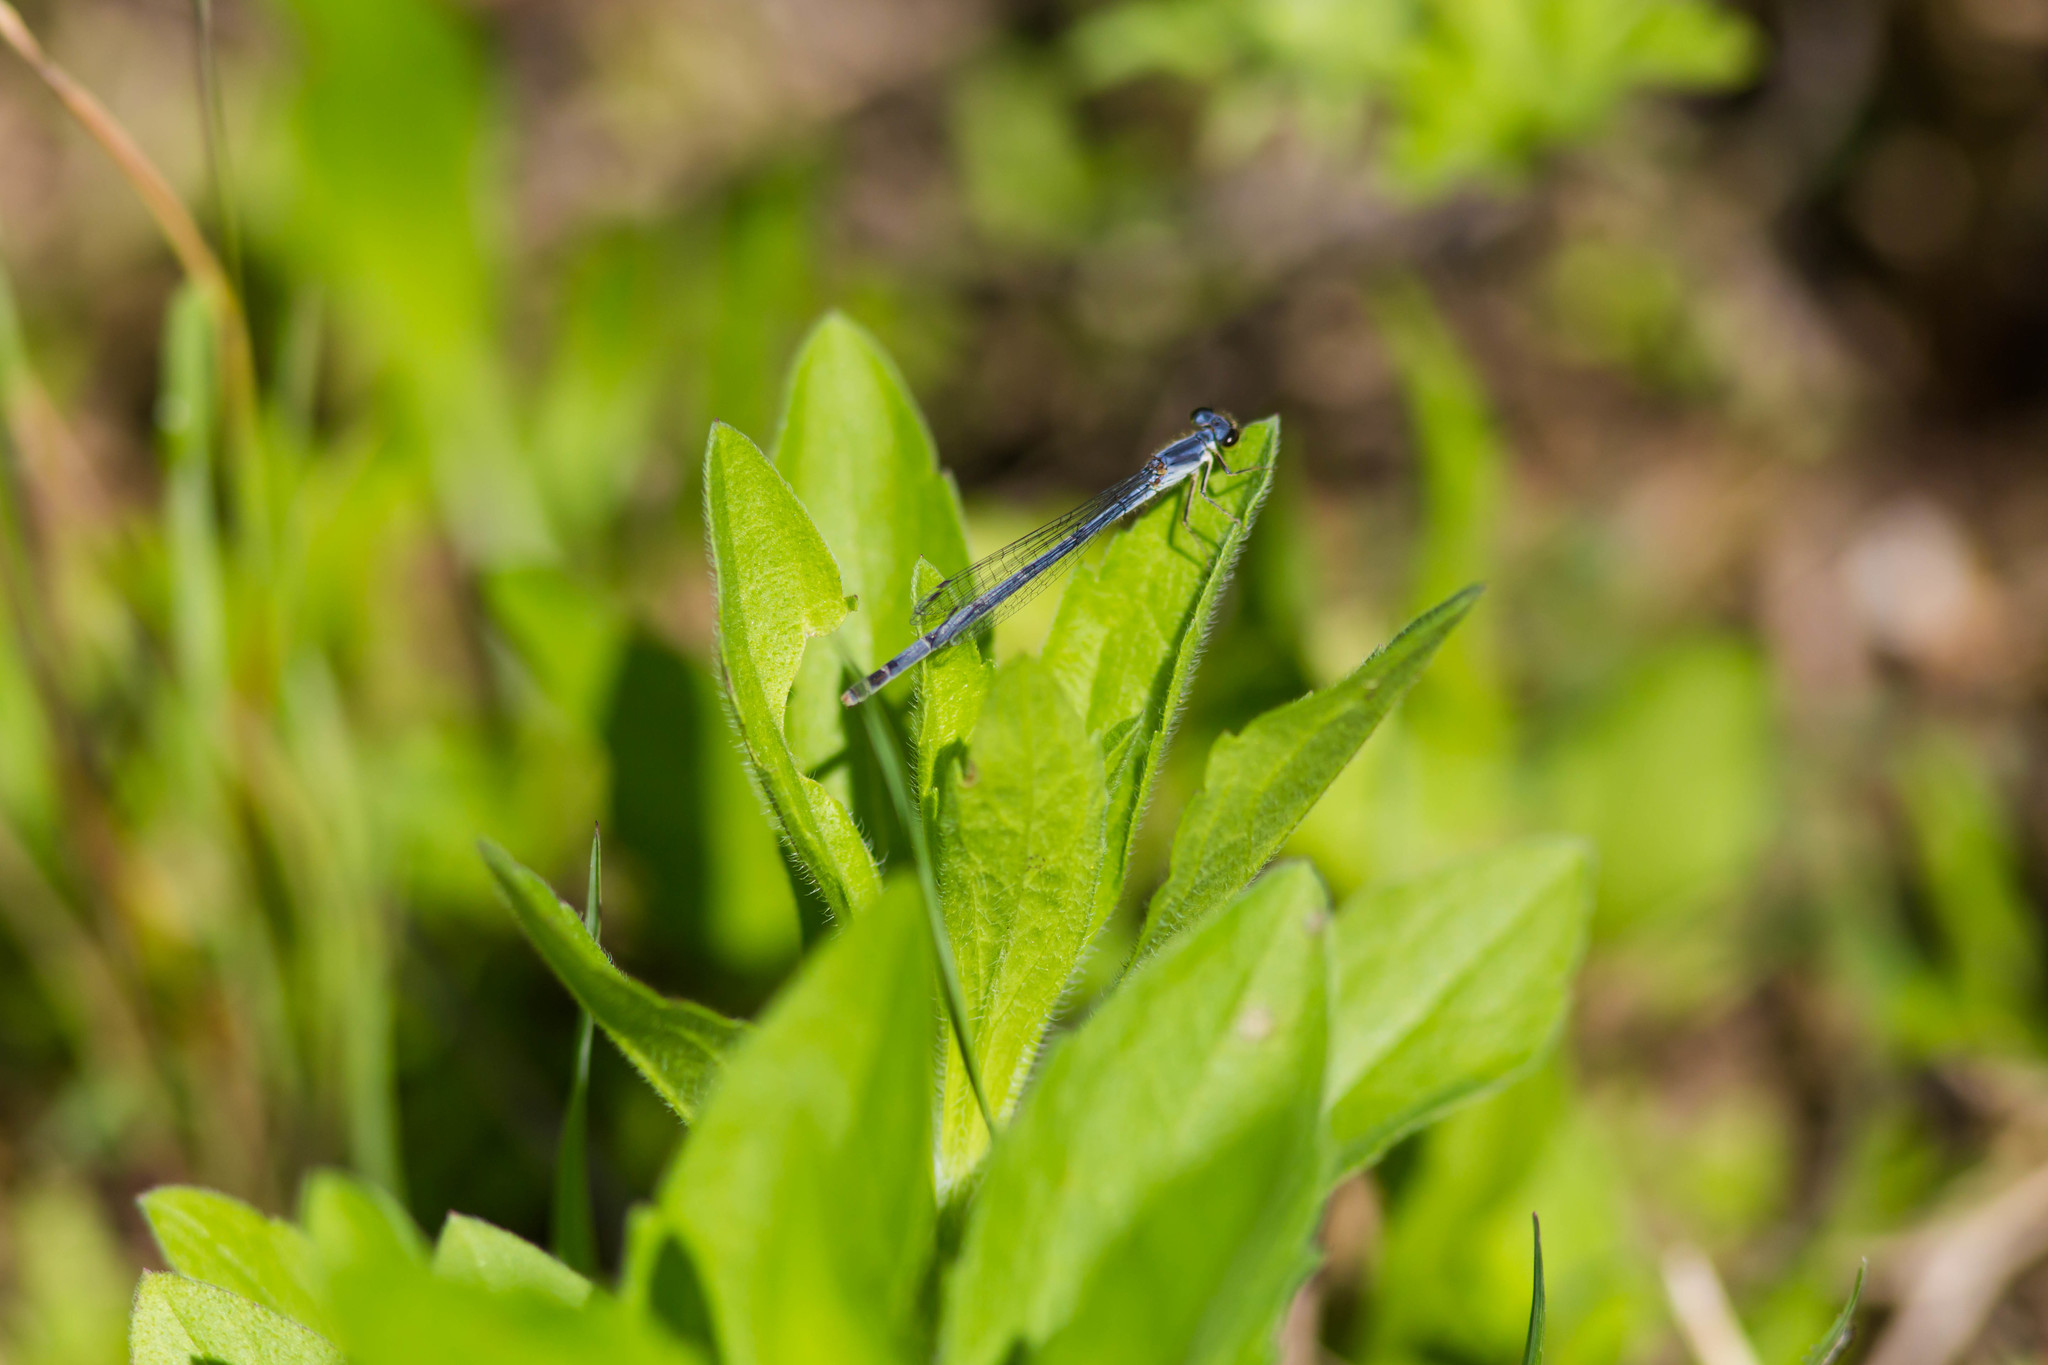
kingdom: Animalia
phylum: Arthropoda
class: Insecta
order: Odonata
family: Coenagrionidae
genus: Ischnura
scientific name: Ischnura posita
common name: Fragile forktail
